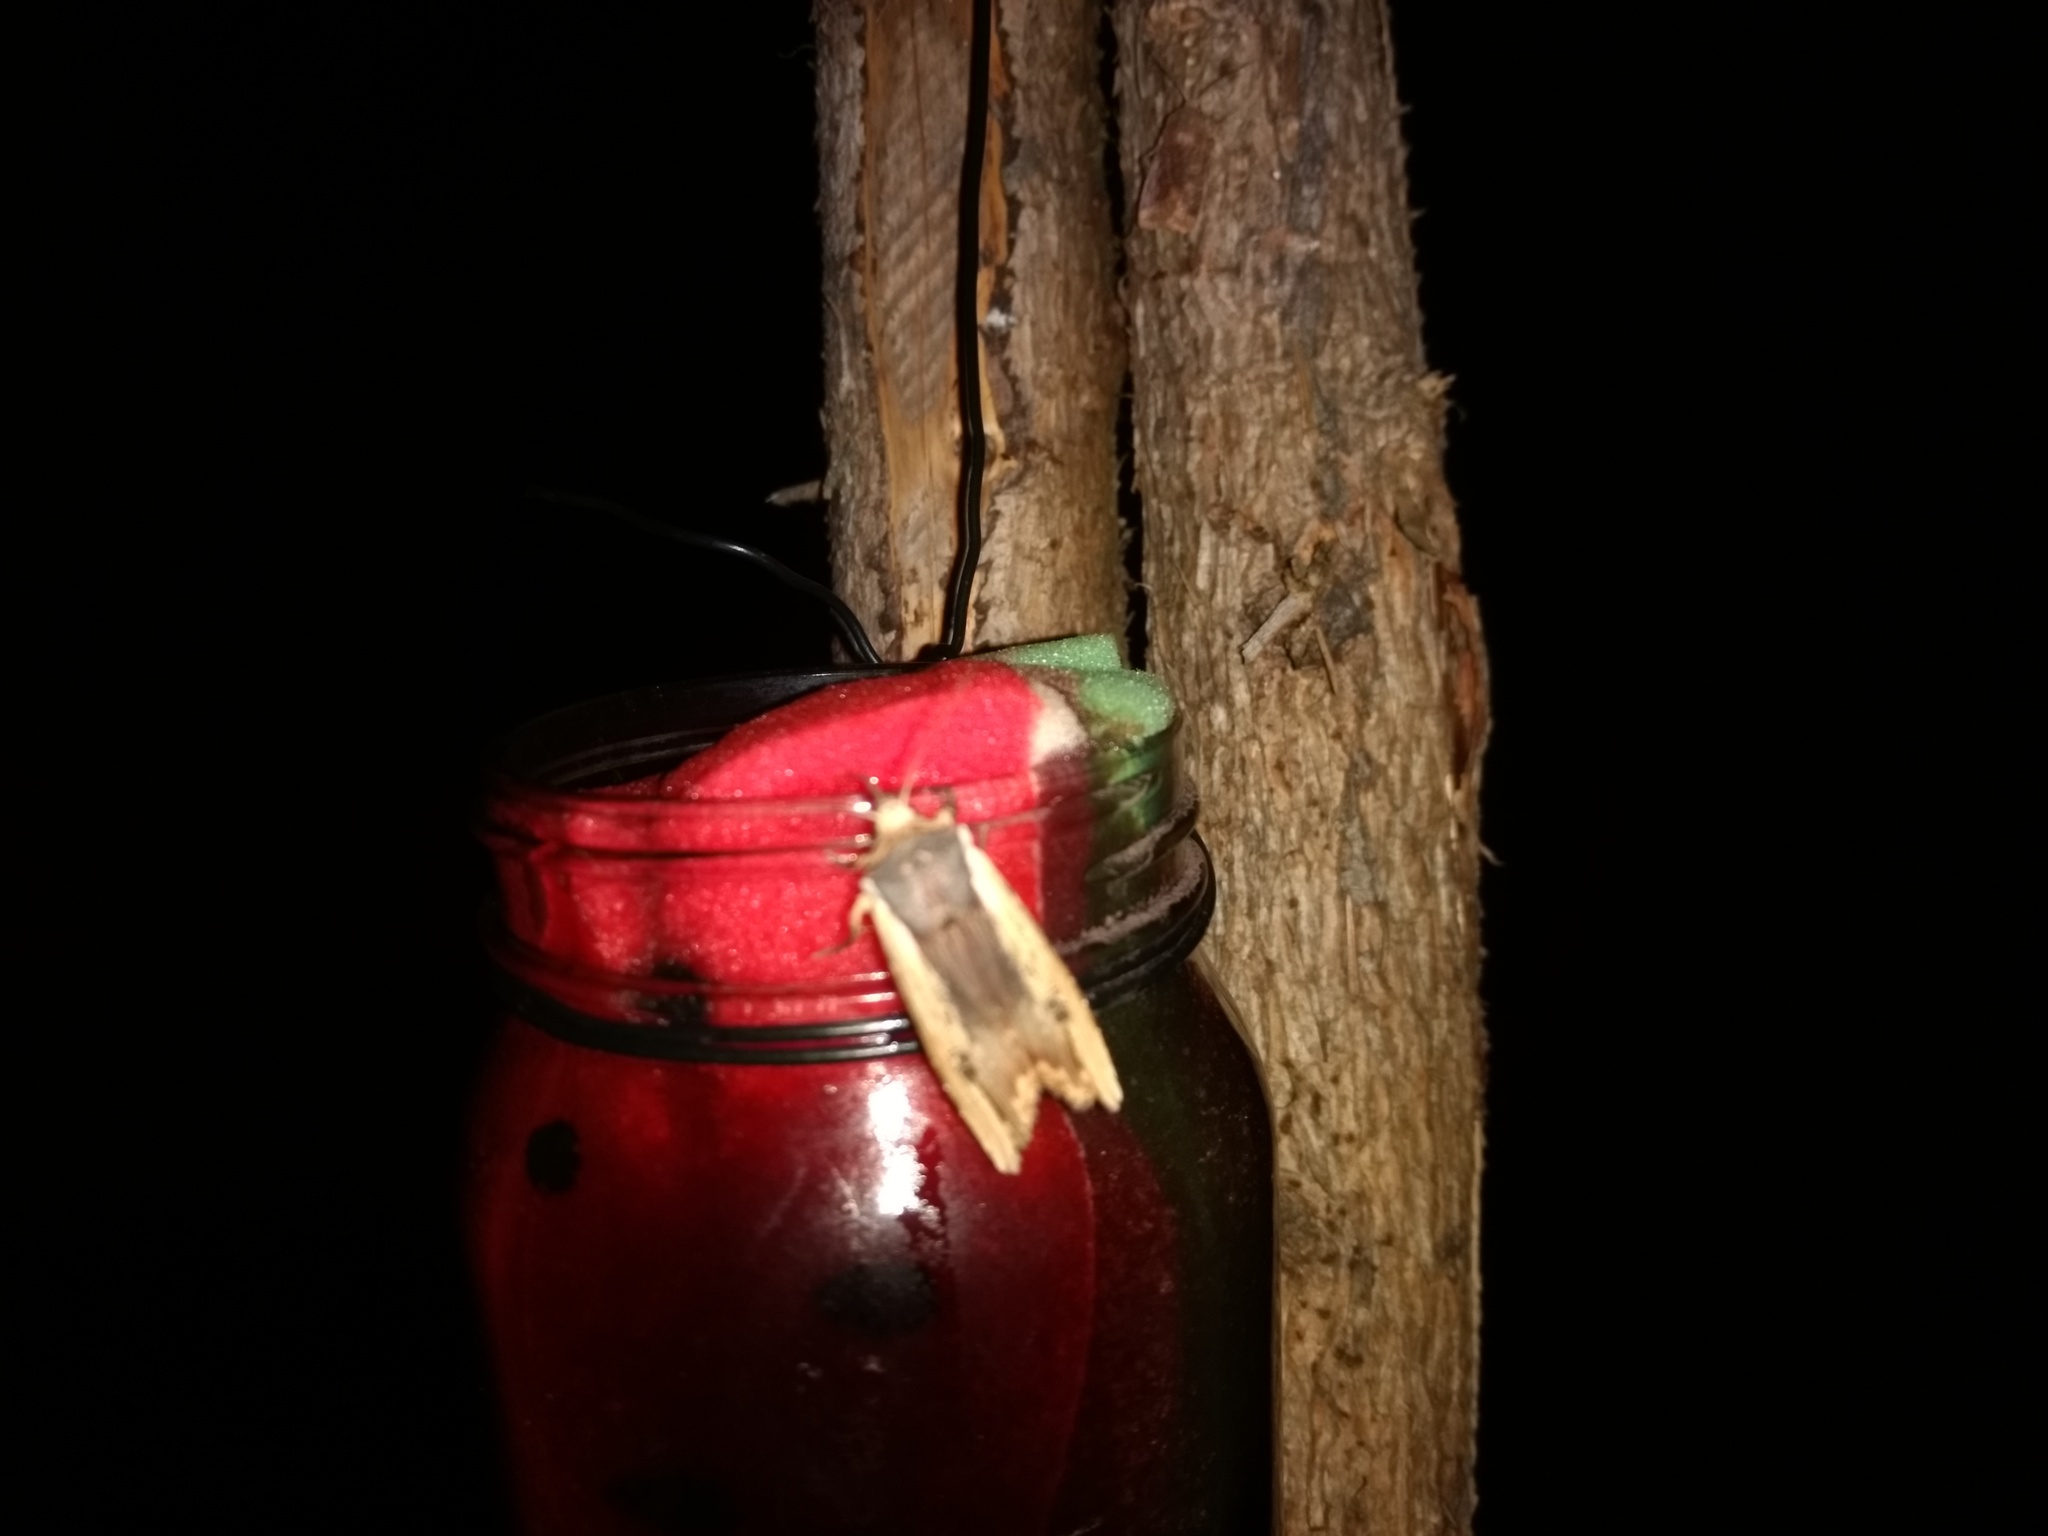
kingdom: Animalia
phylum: Arthropoda
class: Insecta
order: Lepidoptera
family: Noctuidae
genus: Xylena
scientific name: Xylena vetusta
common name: Red sword-grass
